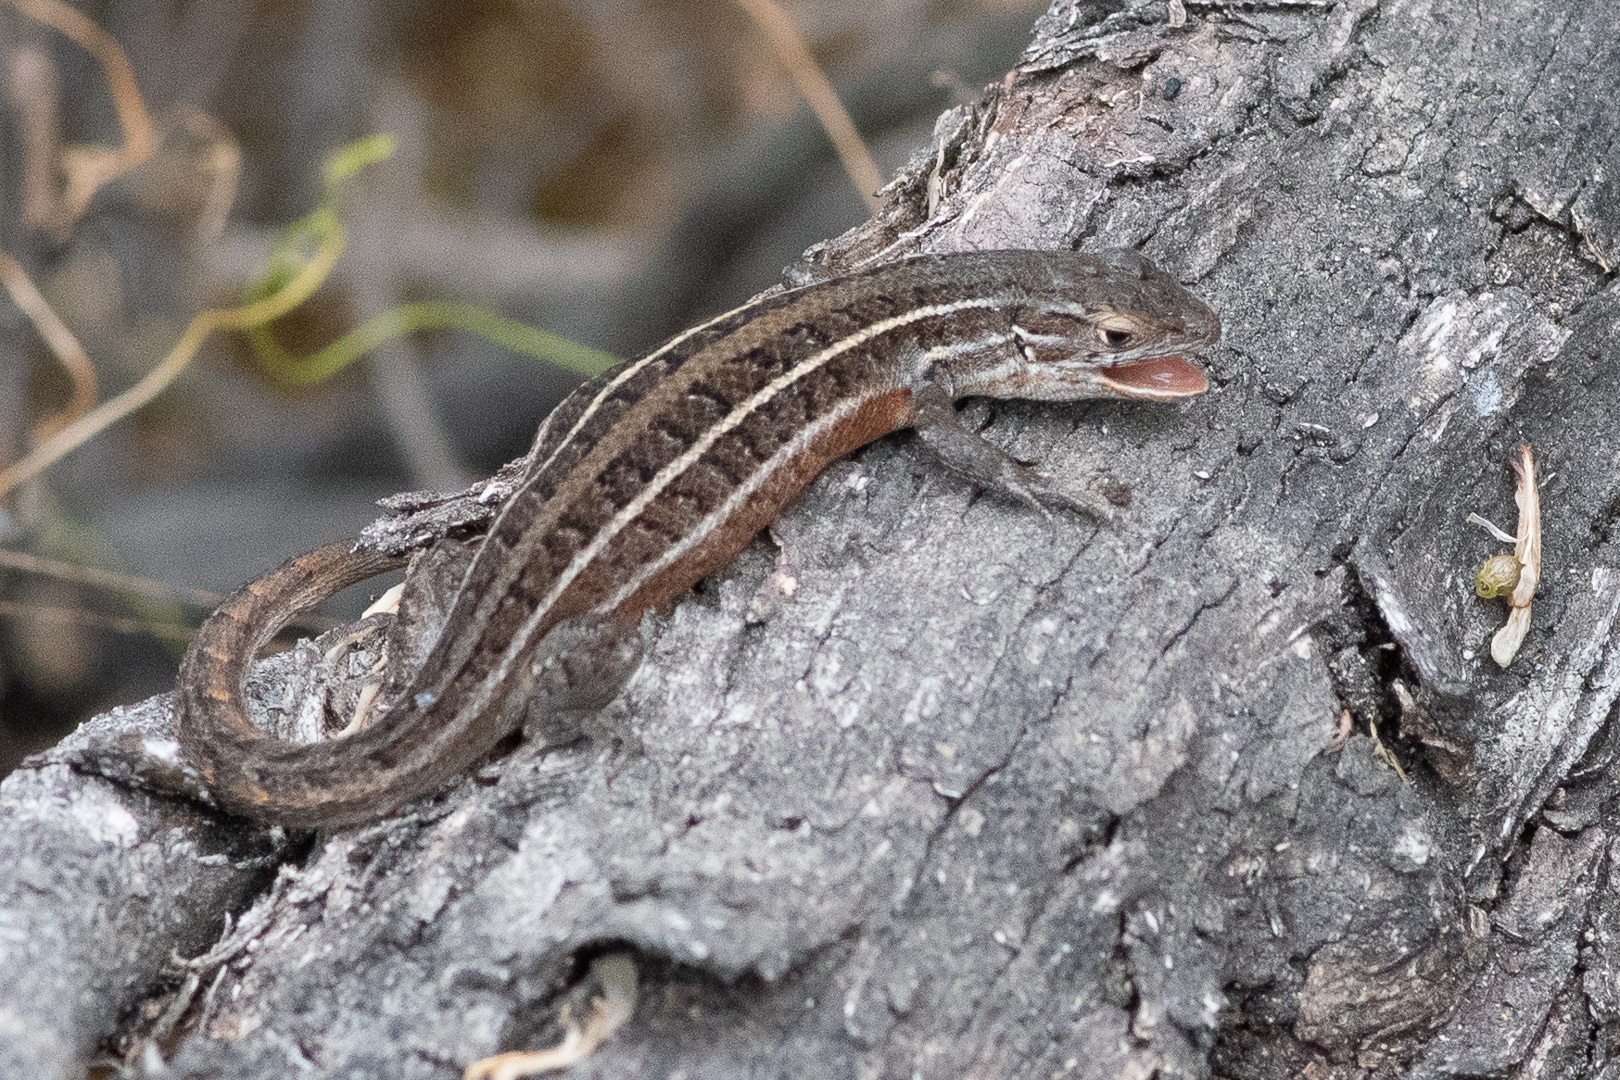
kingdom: Animalia
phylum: Chordata
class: Squamata
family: Liolaemidae
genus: Liolaemus
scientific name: Liolaemus lemniscatus
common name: Wreath tree iguana
